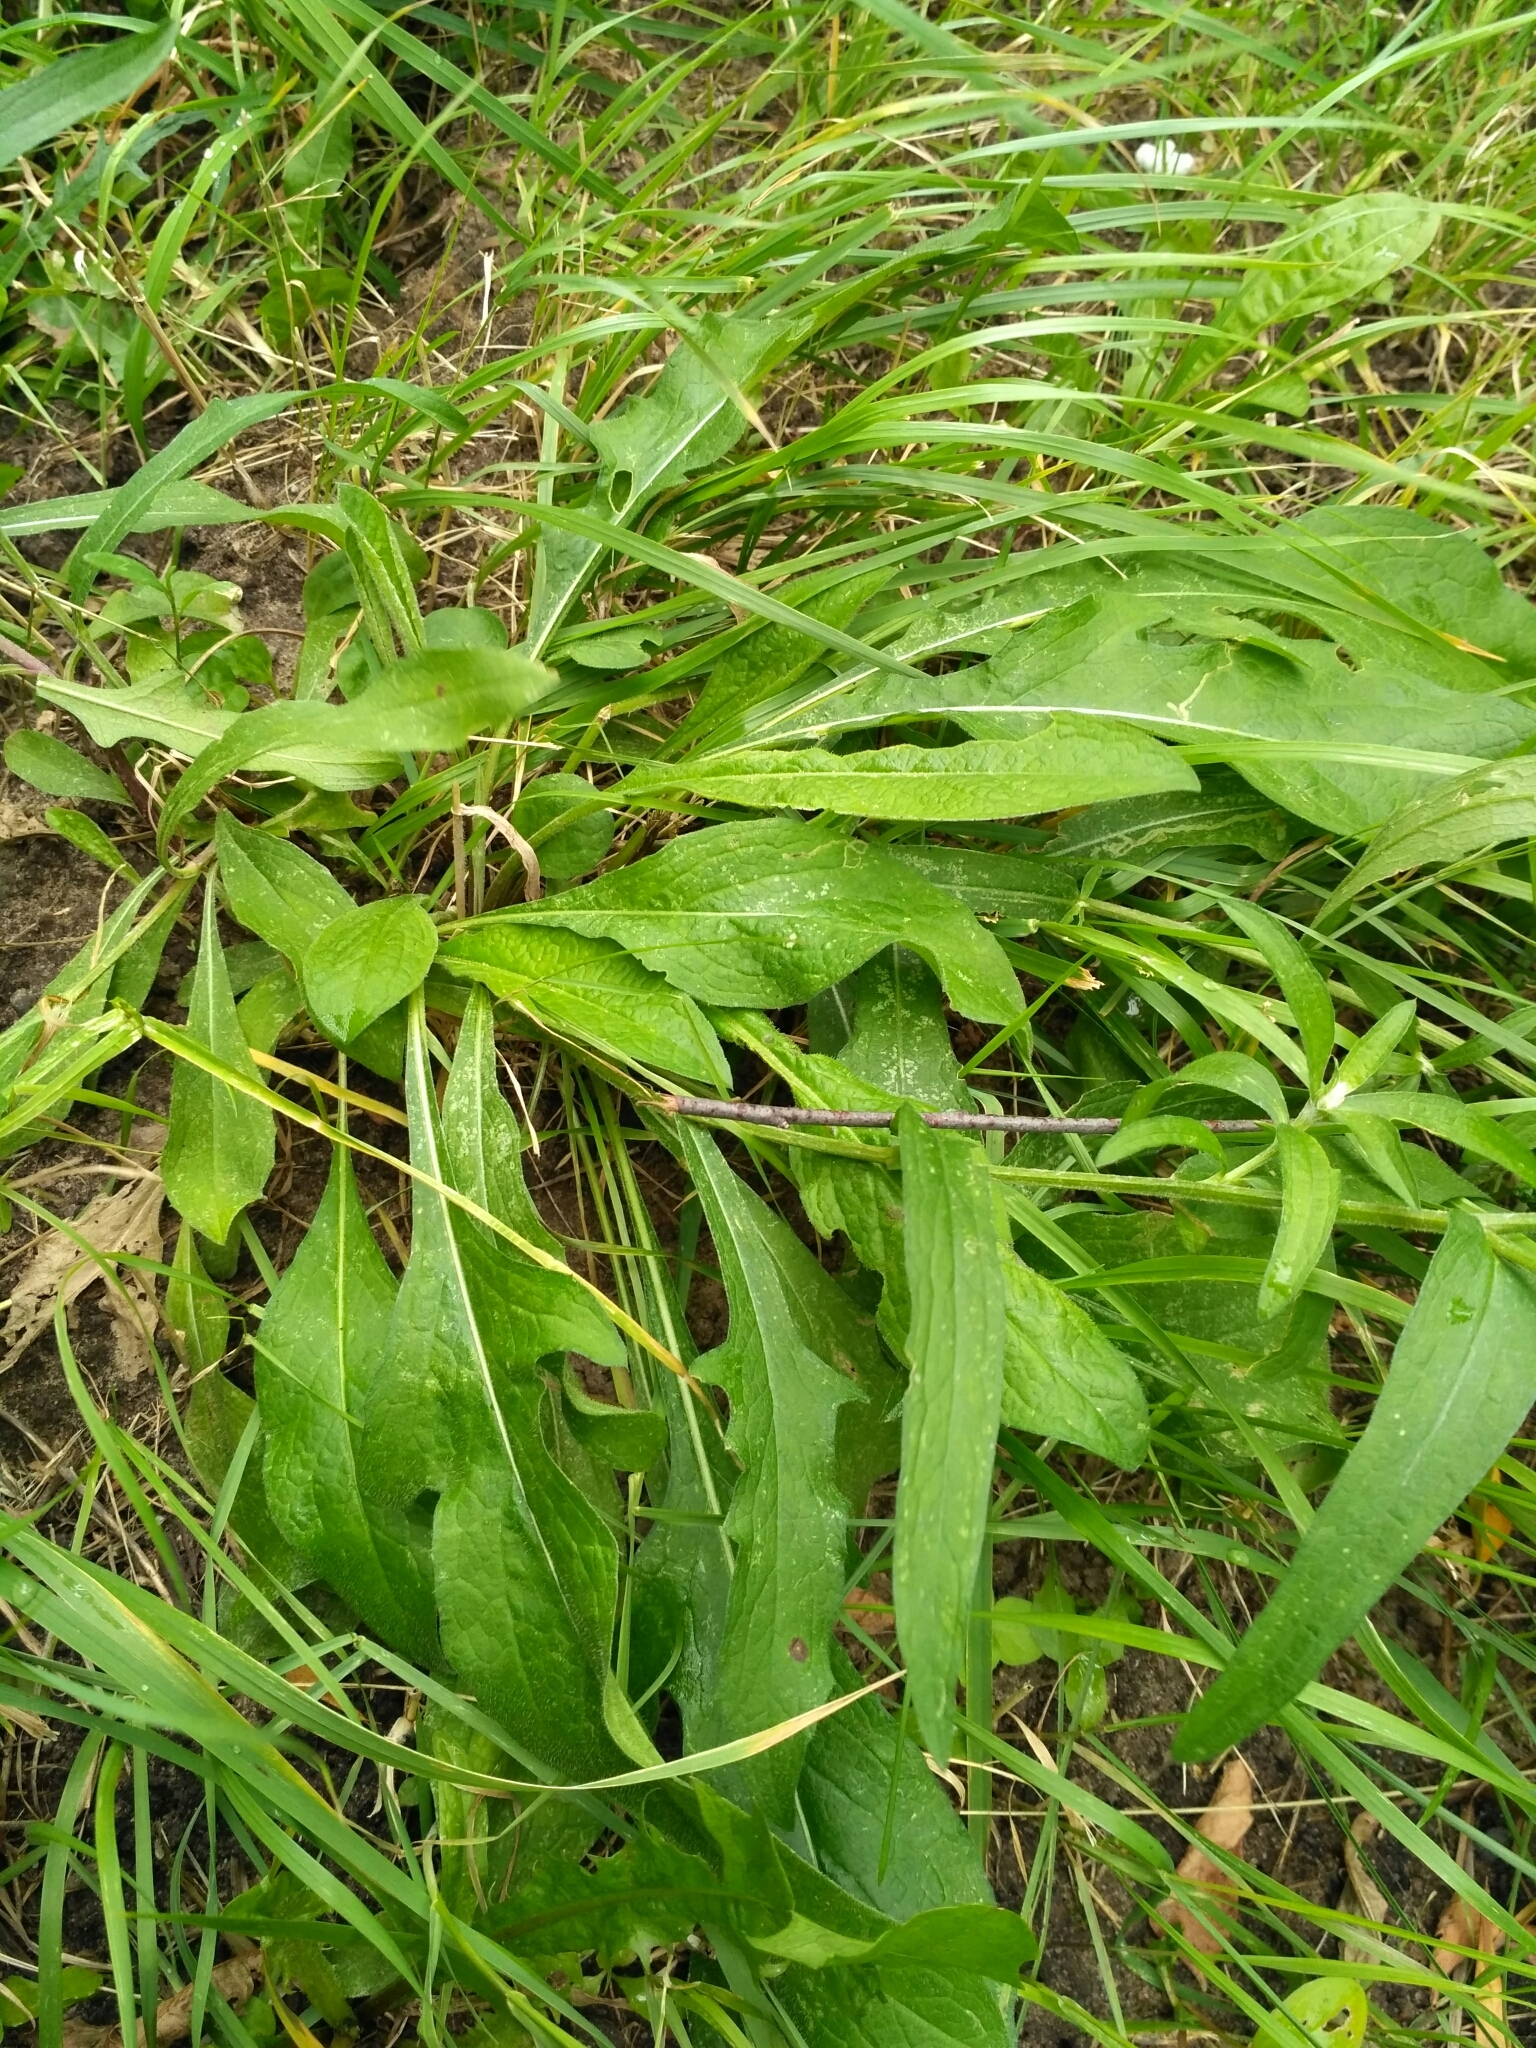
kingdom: Plantae
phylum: Tracheophyta
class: Magnoliopsida
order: Asterales
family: Asteraceae
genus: Centaurea
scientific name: Centaurea jacea
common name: Brown knapweed
